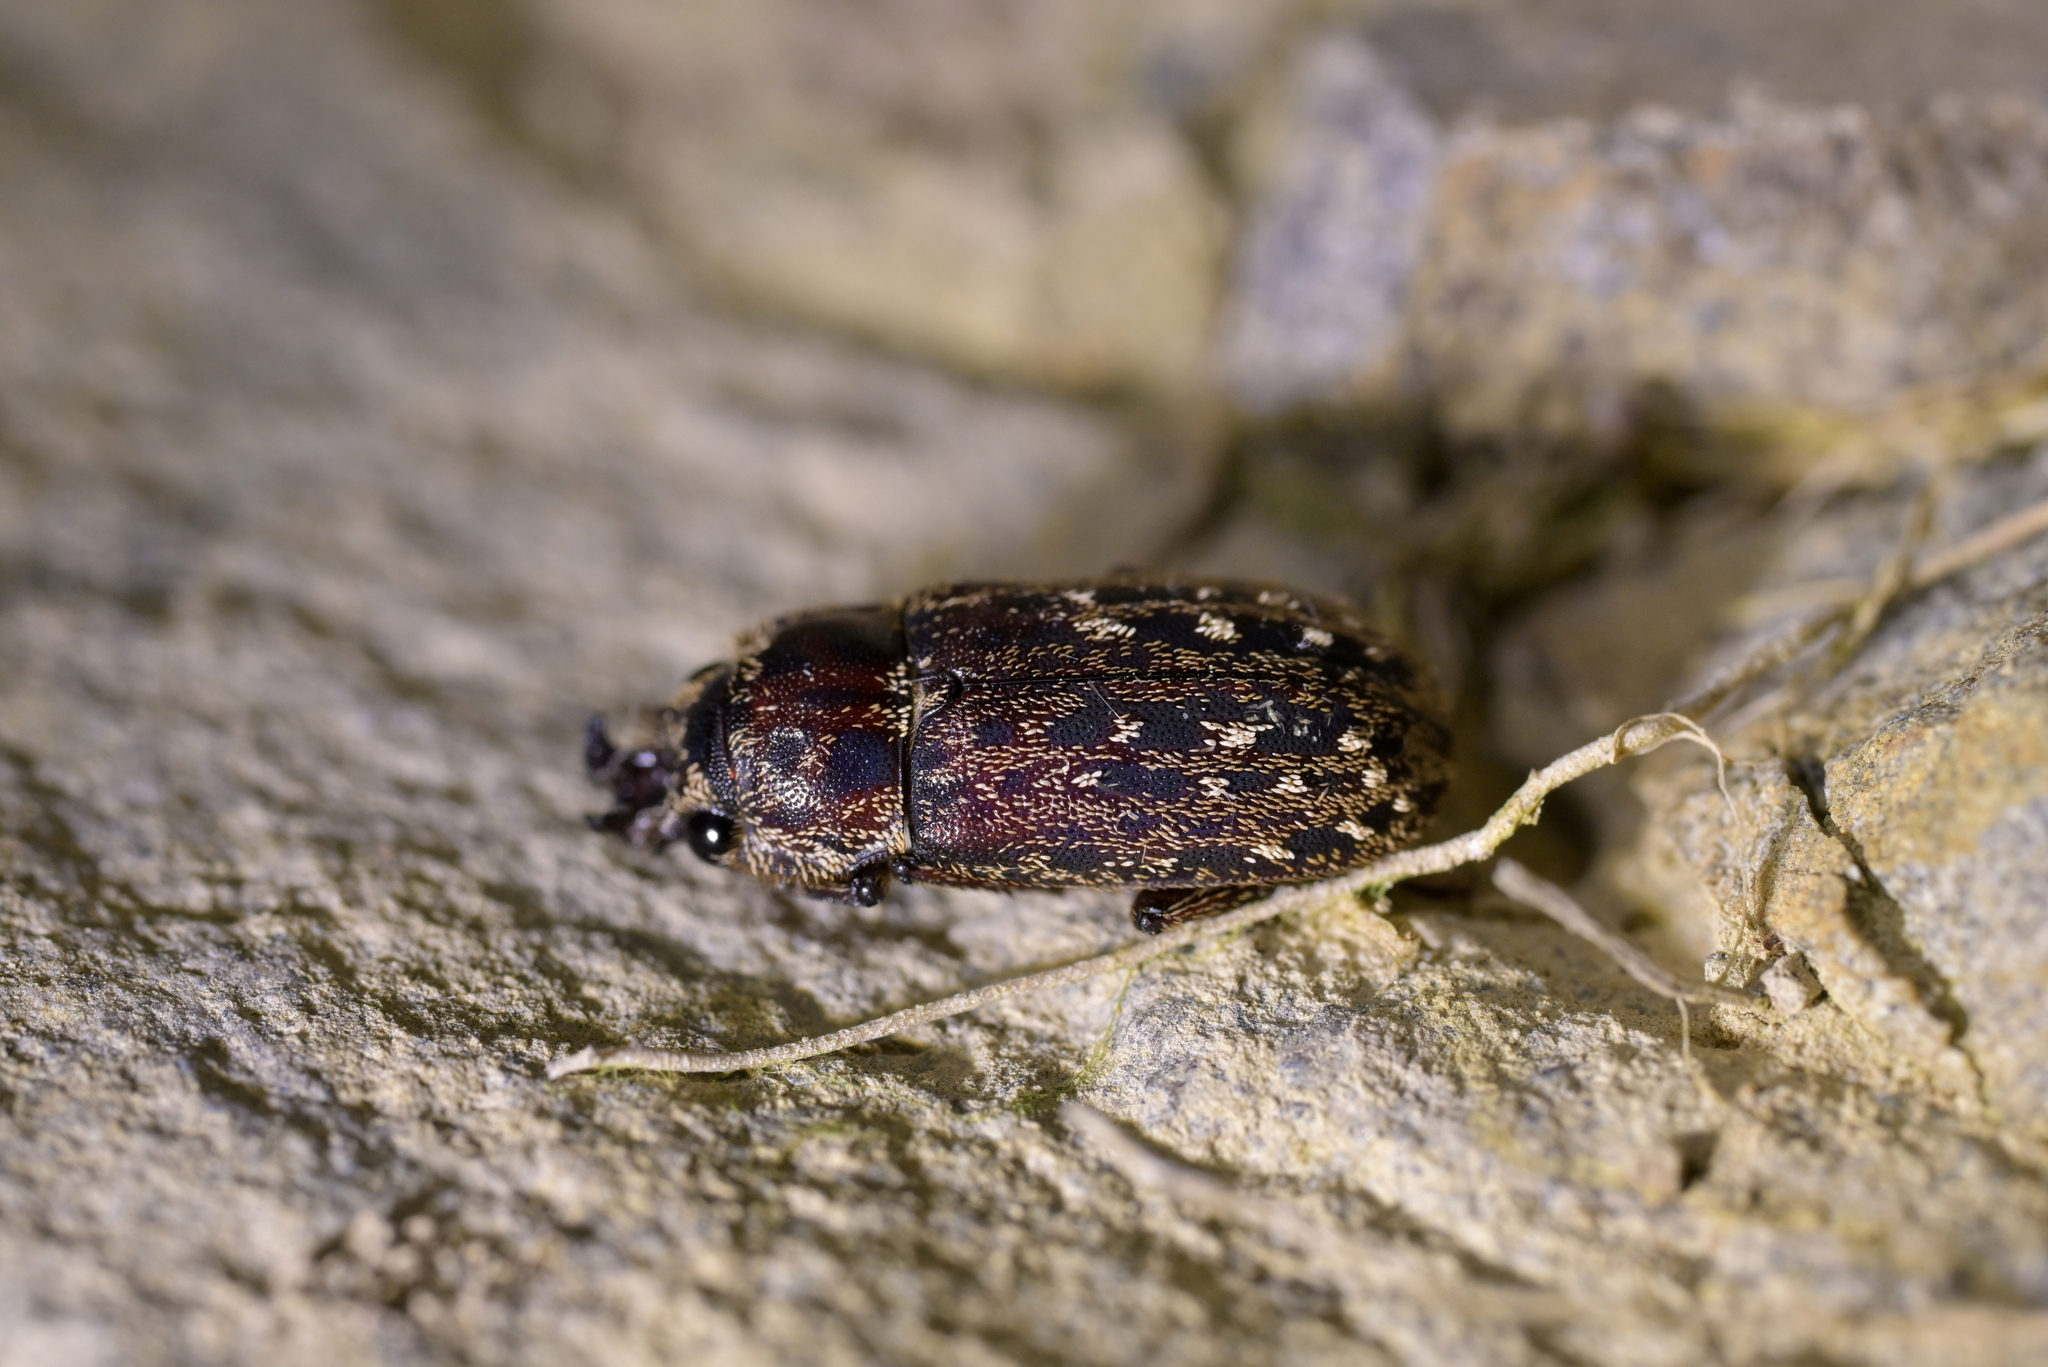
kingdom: Animalia
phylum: Arthropoda
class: Insecta
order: Coleoptera
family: Lucanidae
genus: Mitophyllus
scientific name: Mitophyllus irroratus
